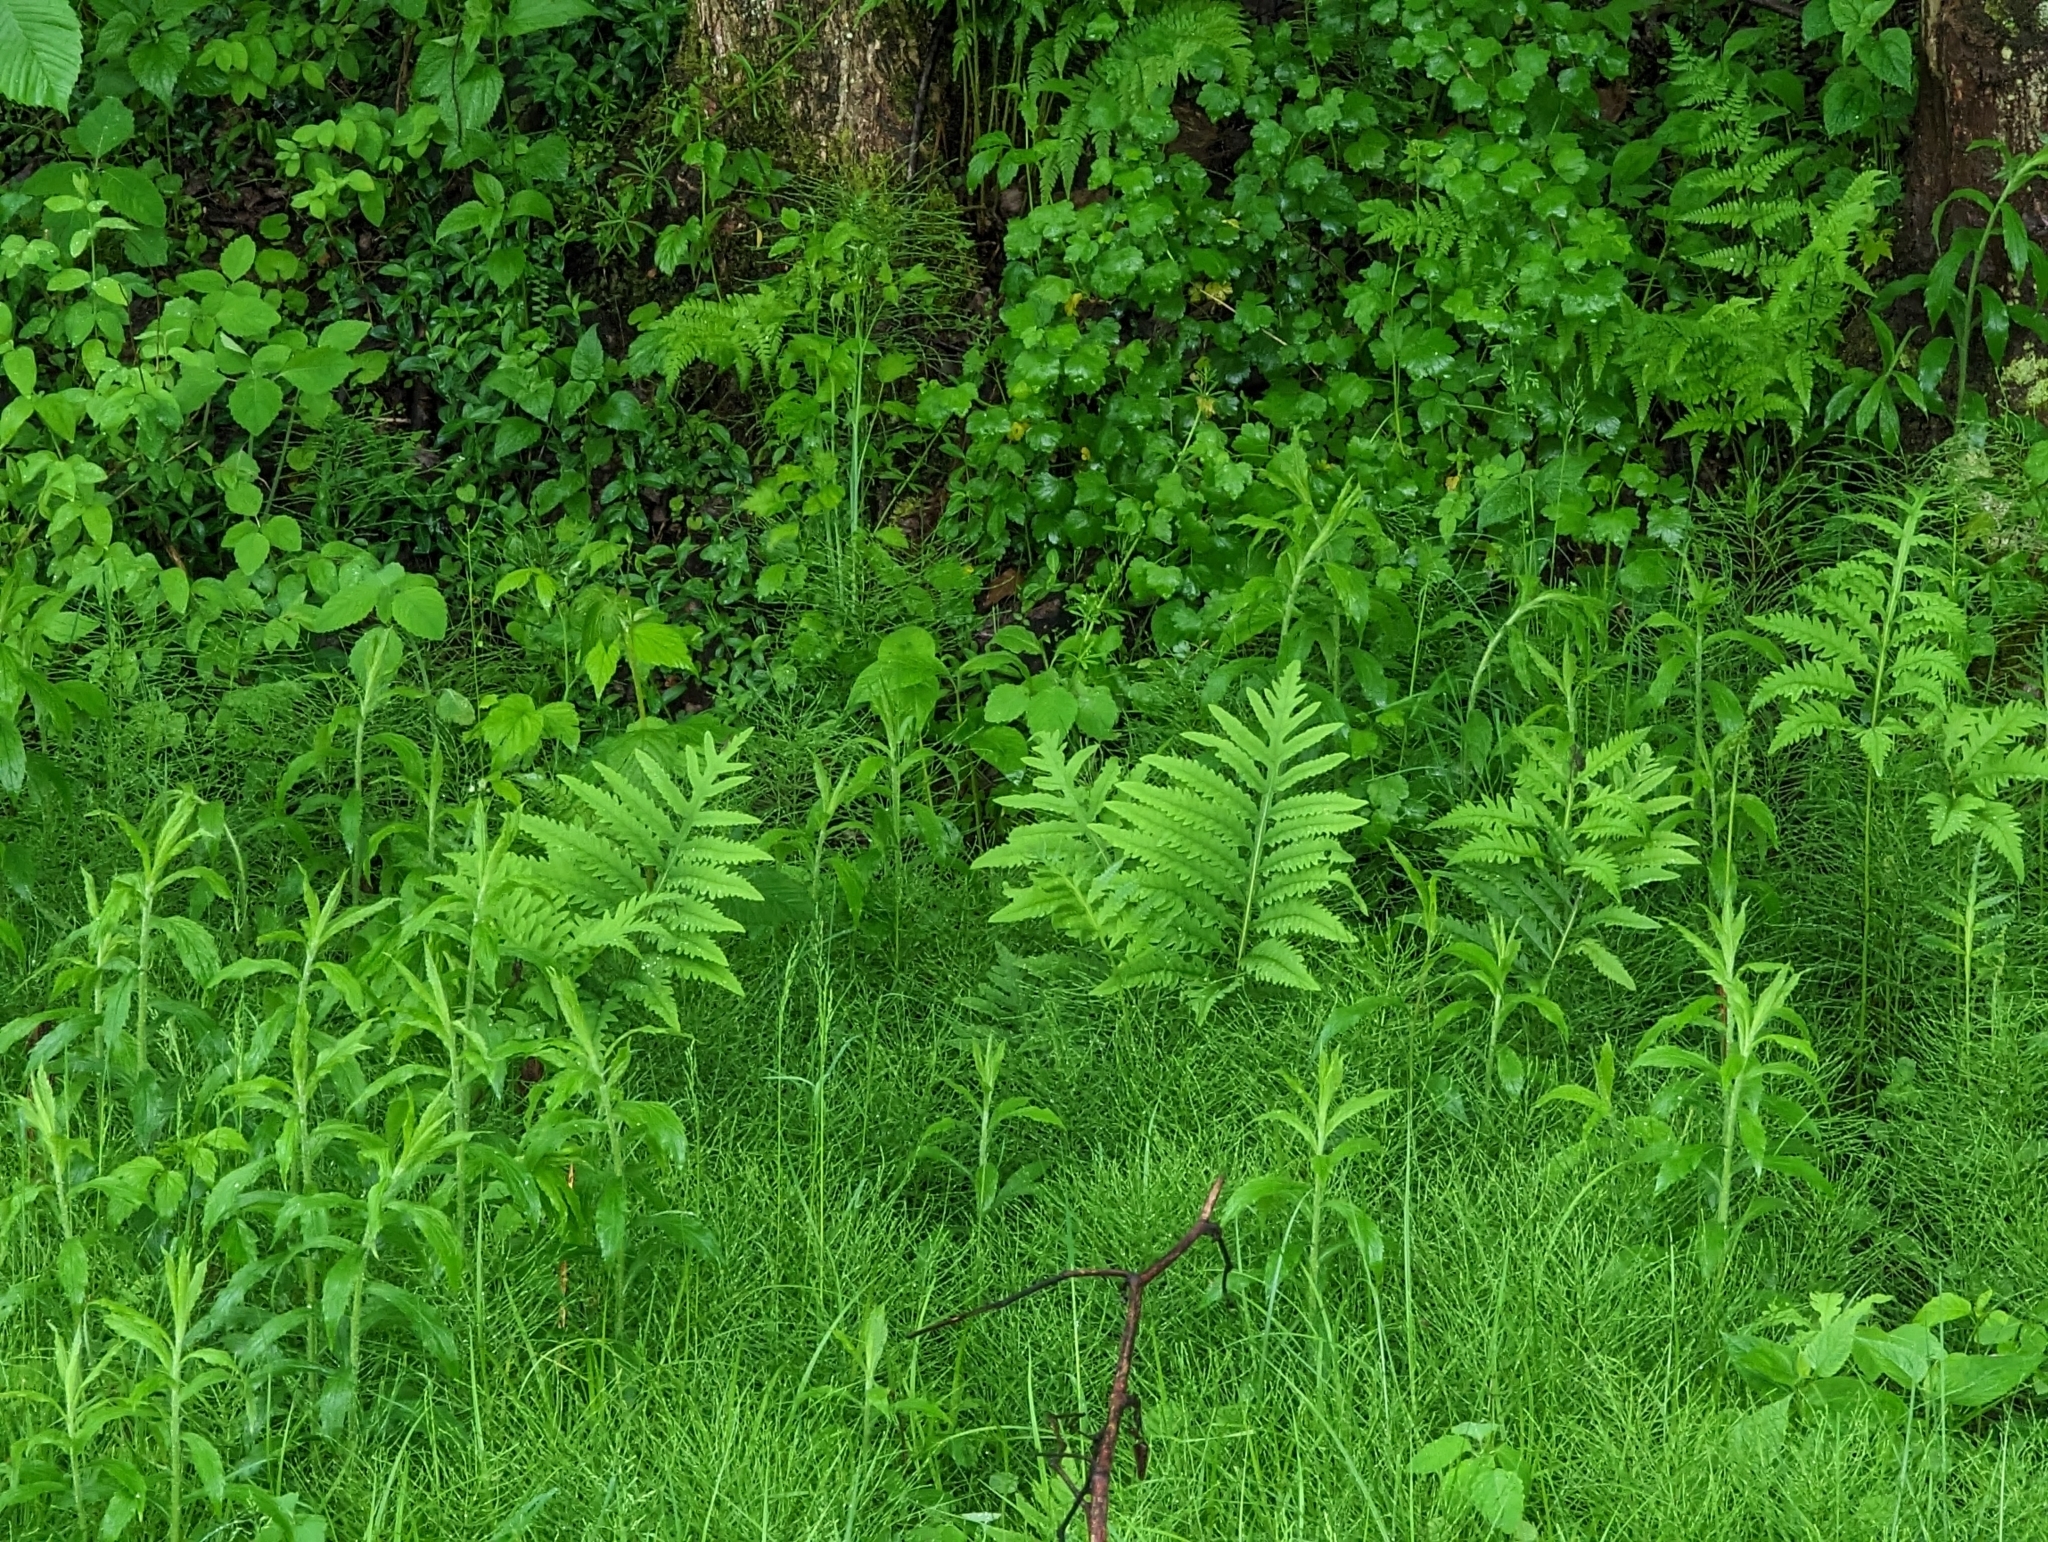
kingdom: Plantae
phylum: Tracheophyta
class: Polypodiopsida
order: Polypodiales
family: Onocleaceae
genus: Onoclea
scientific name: Onoclea sensibilis
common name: Sensitive fern
